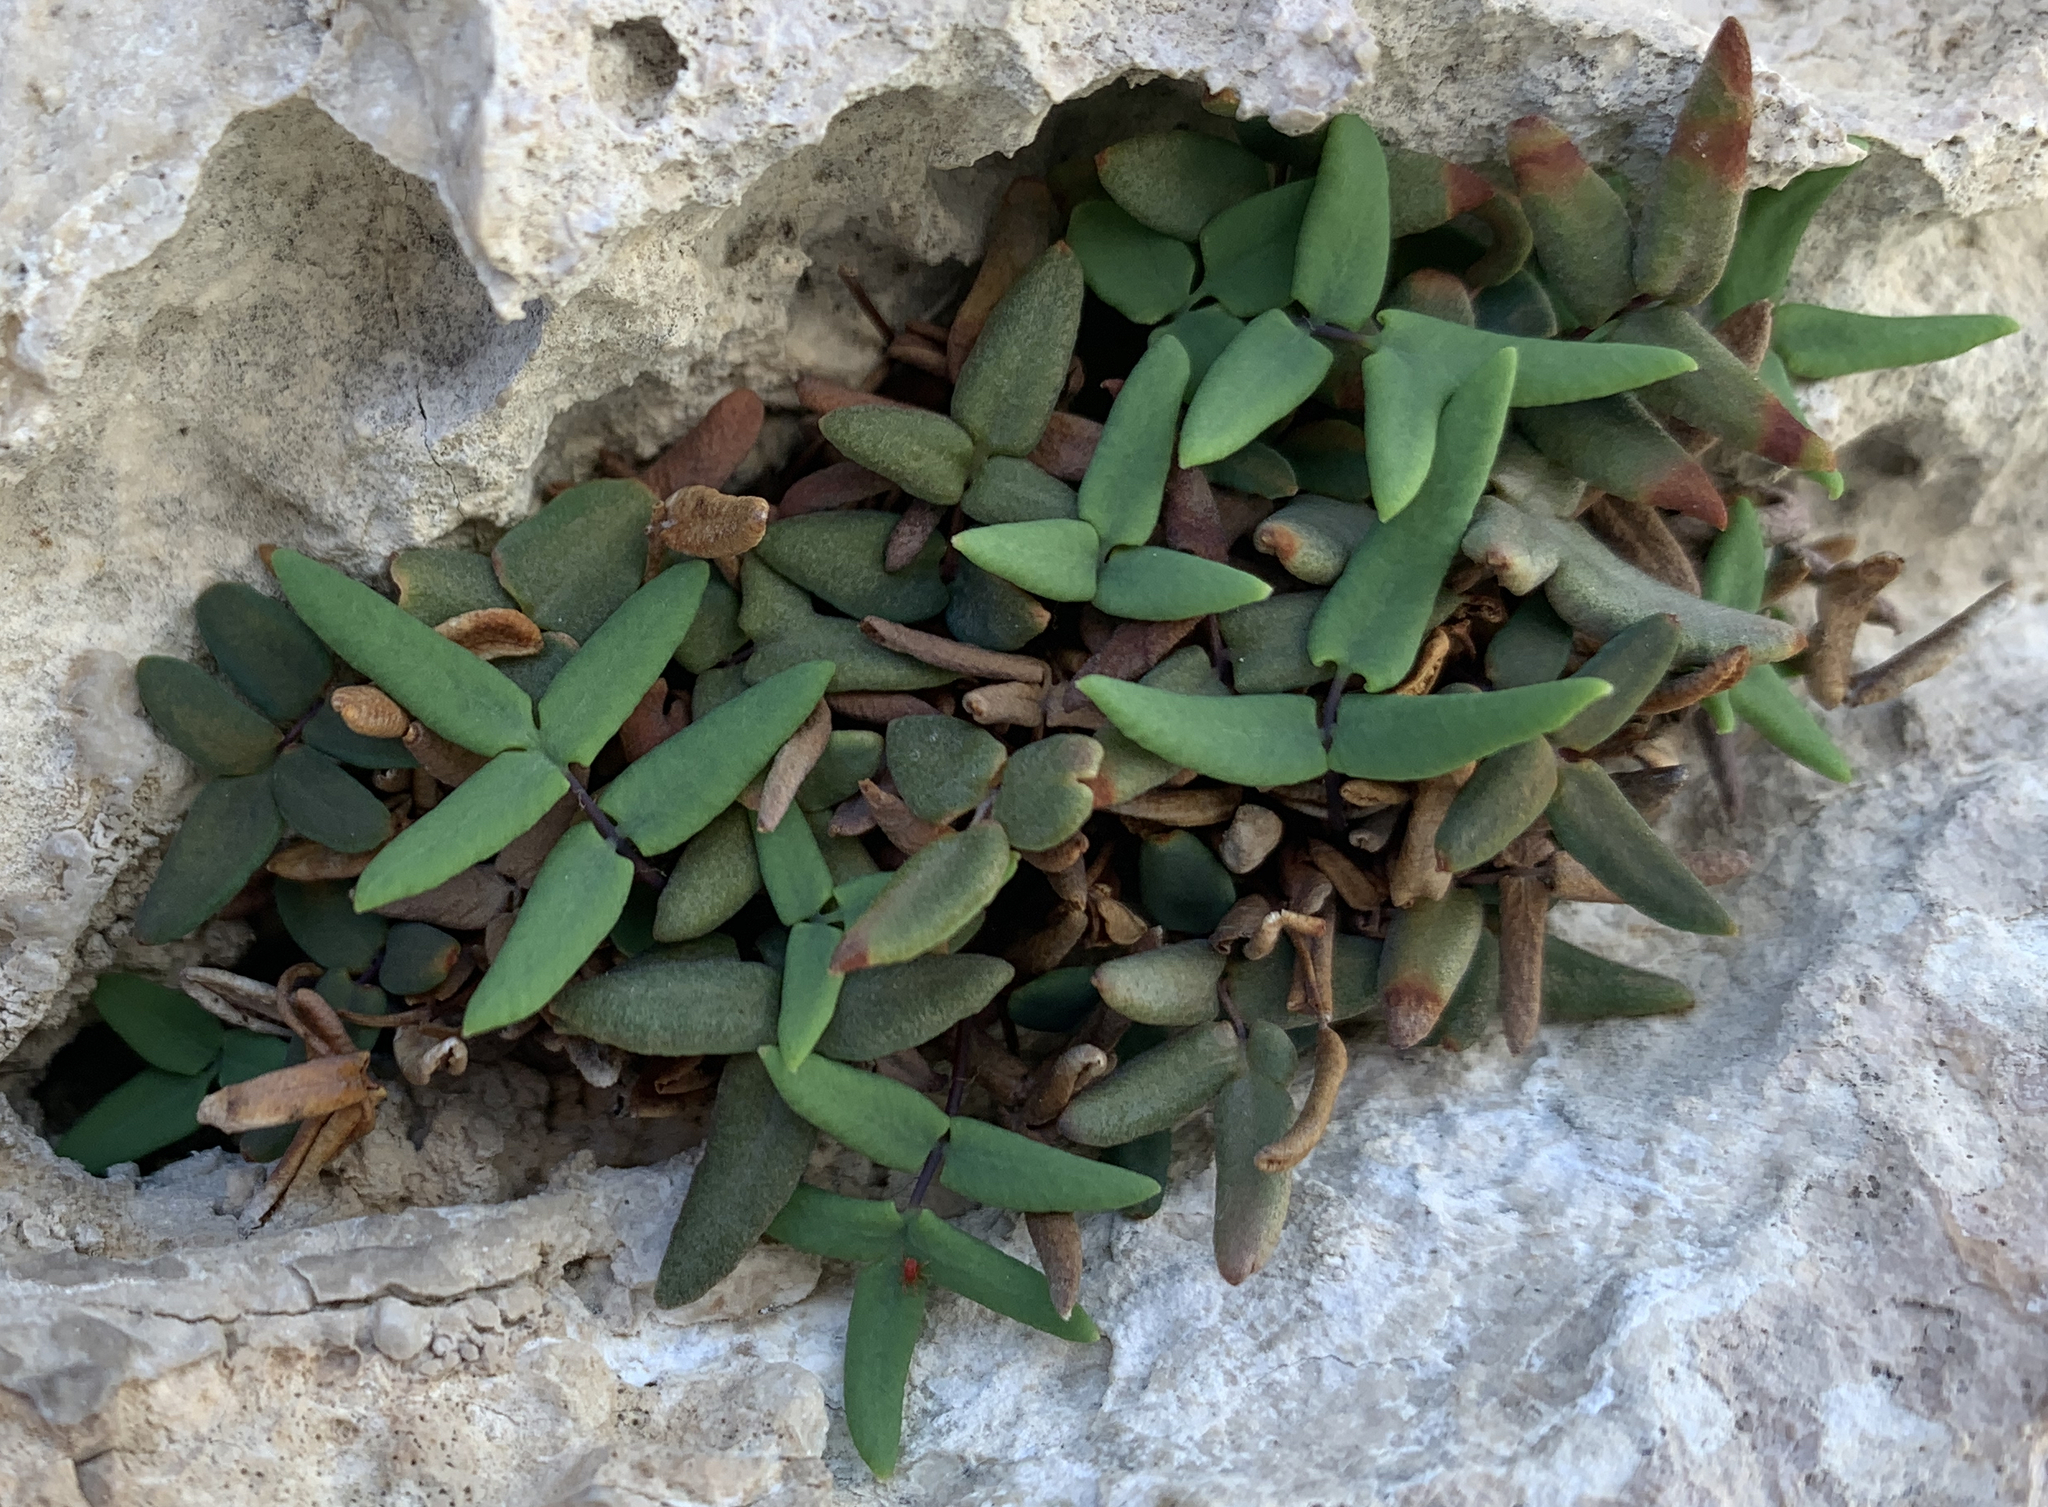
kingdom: Plantae
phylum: Tracheophyta
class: Polypodiopsida
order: Polypodiales
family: Pteridaceae
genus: Pellaea
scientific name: Pellaea glabella
